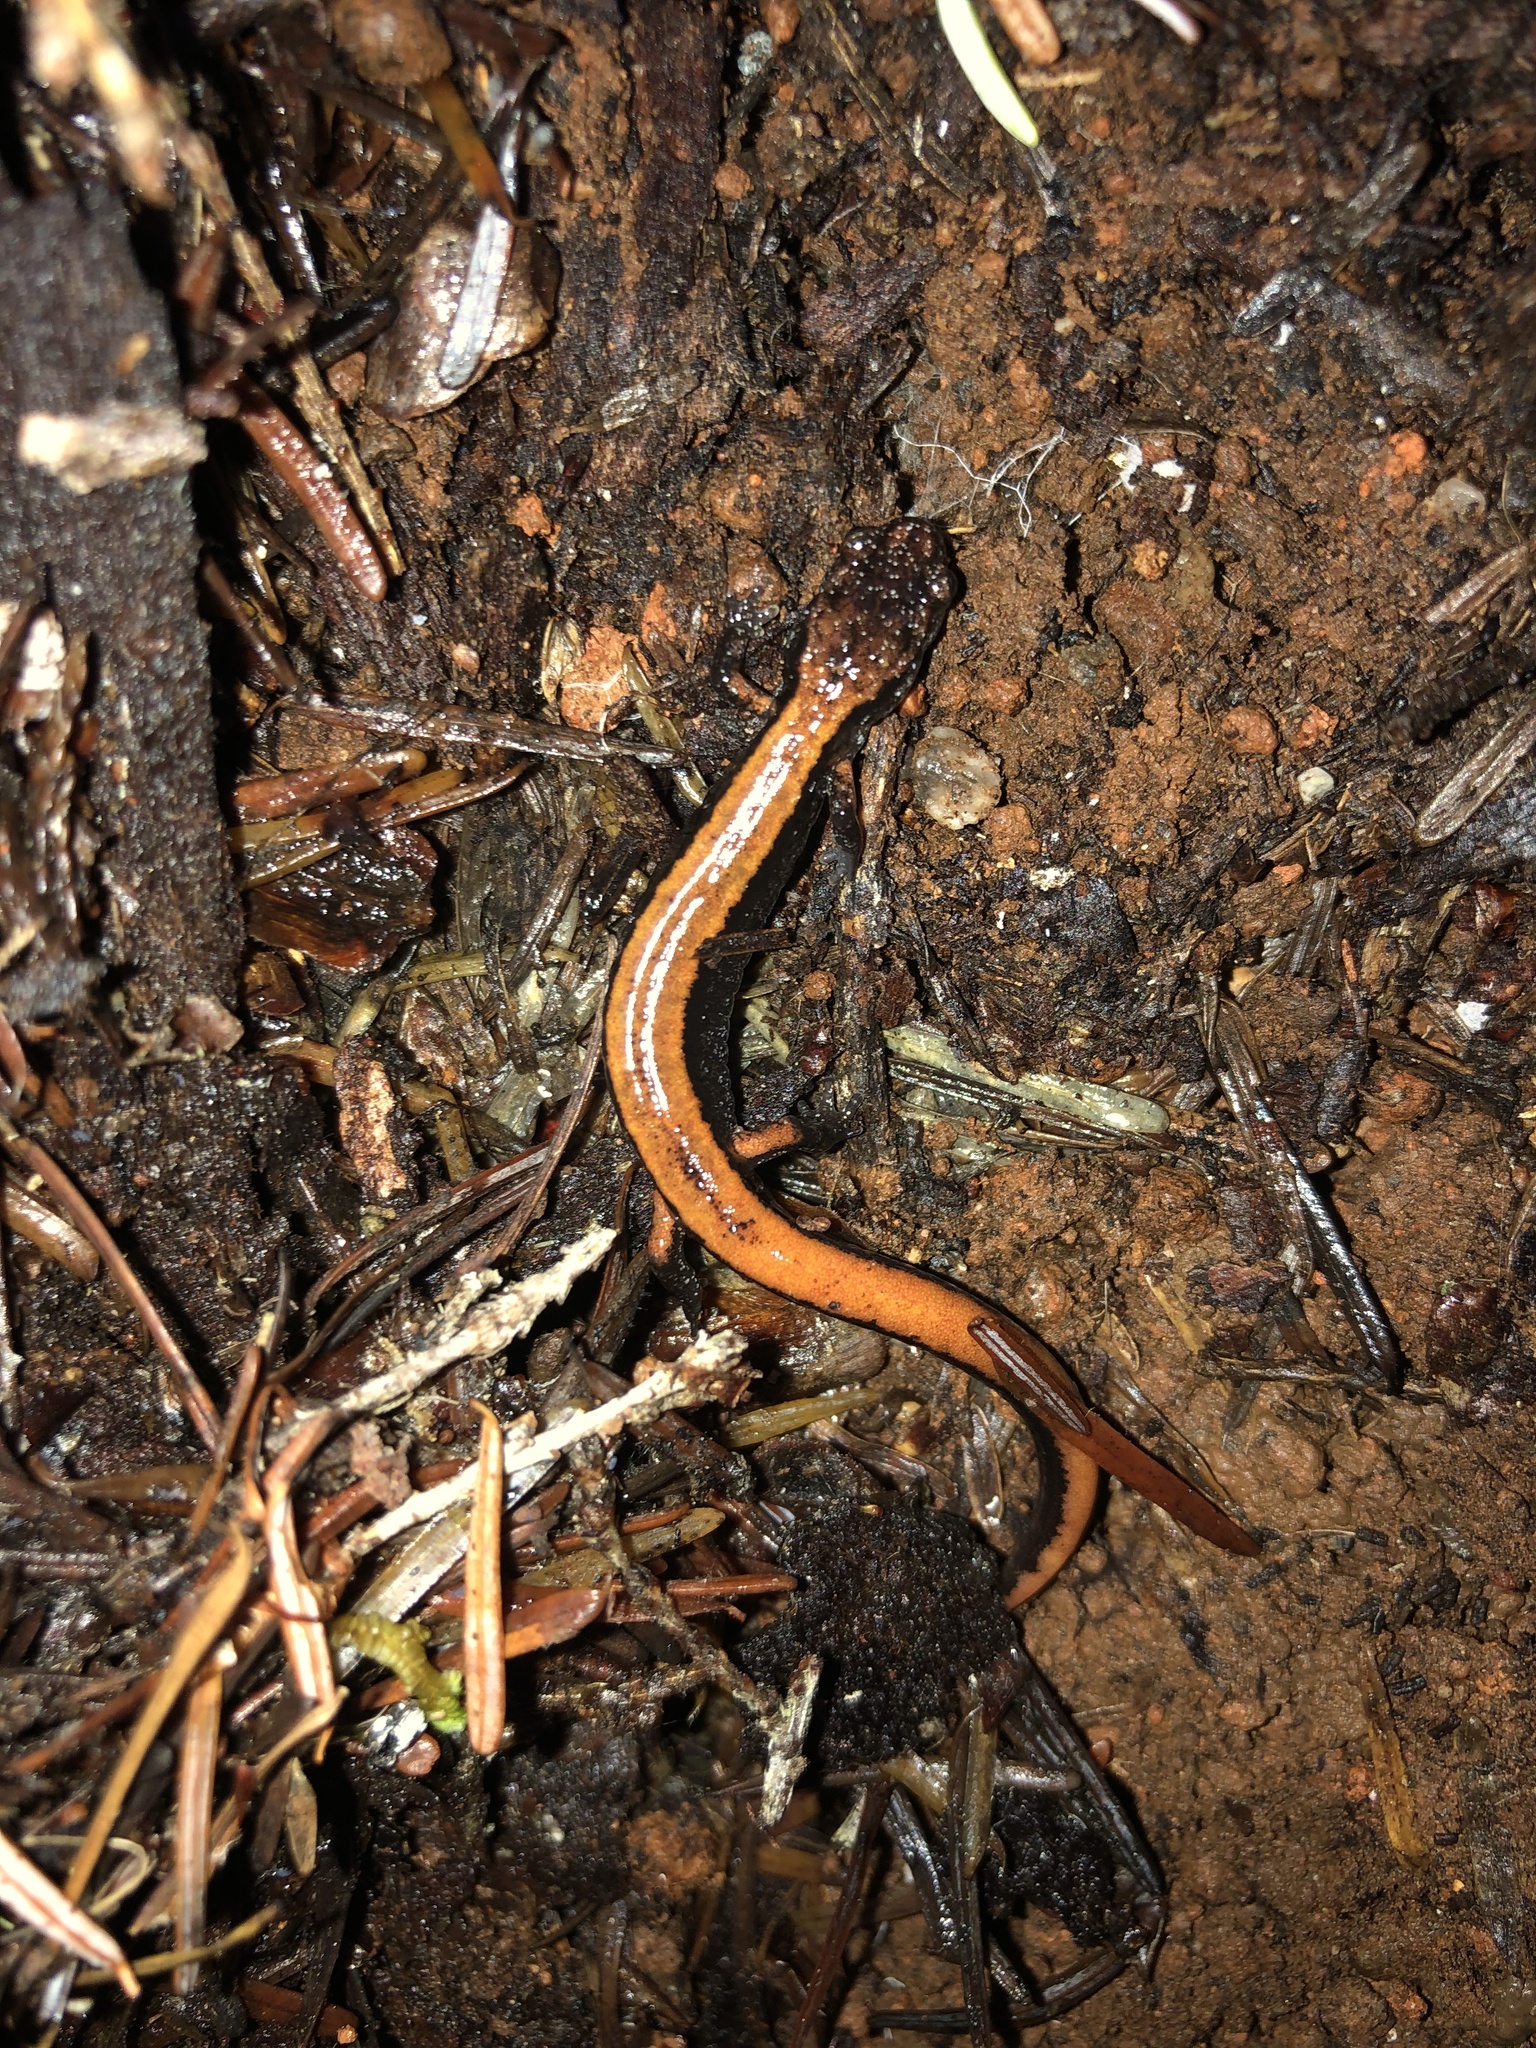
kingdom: Animalia
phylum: Chordata
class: Amphibia
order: Caudata
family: Plethodontidae
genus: Plethodon
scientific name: Plethodon vehiculum
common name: Western red-backed salamander
